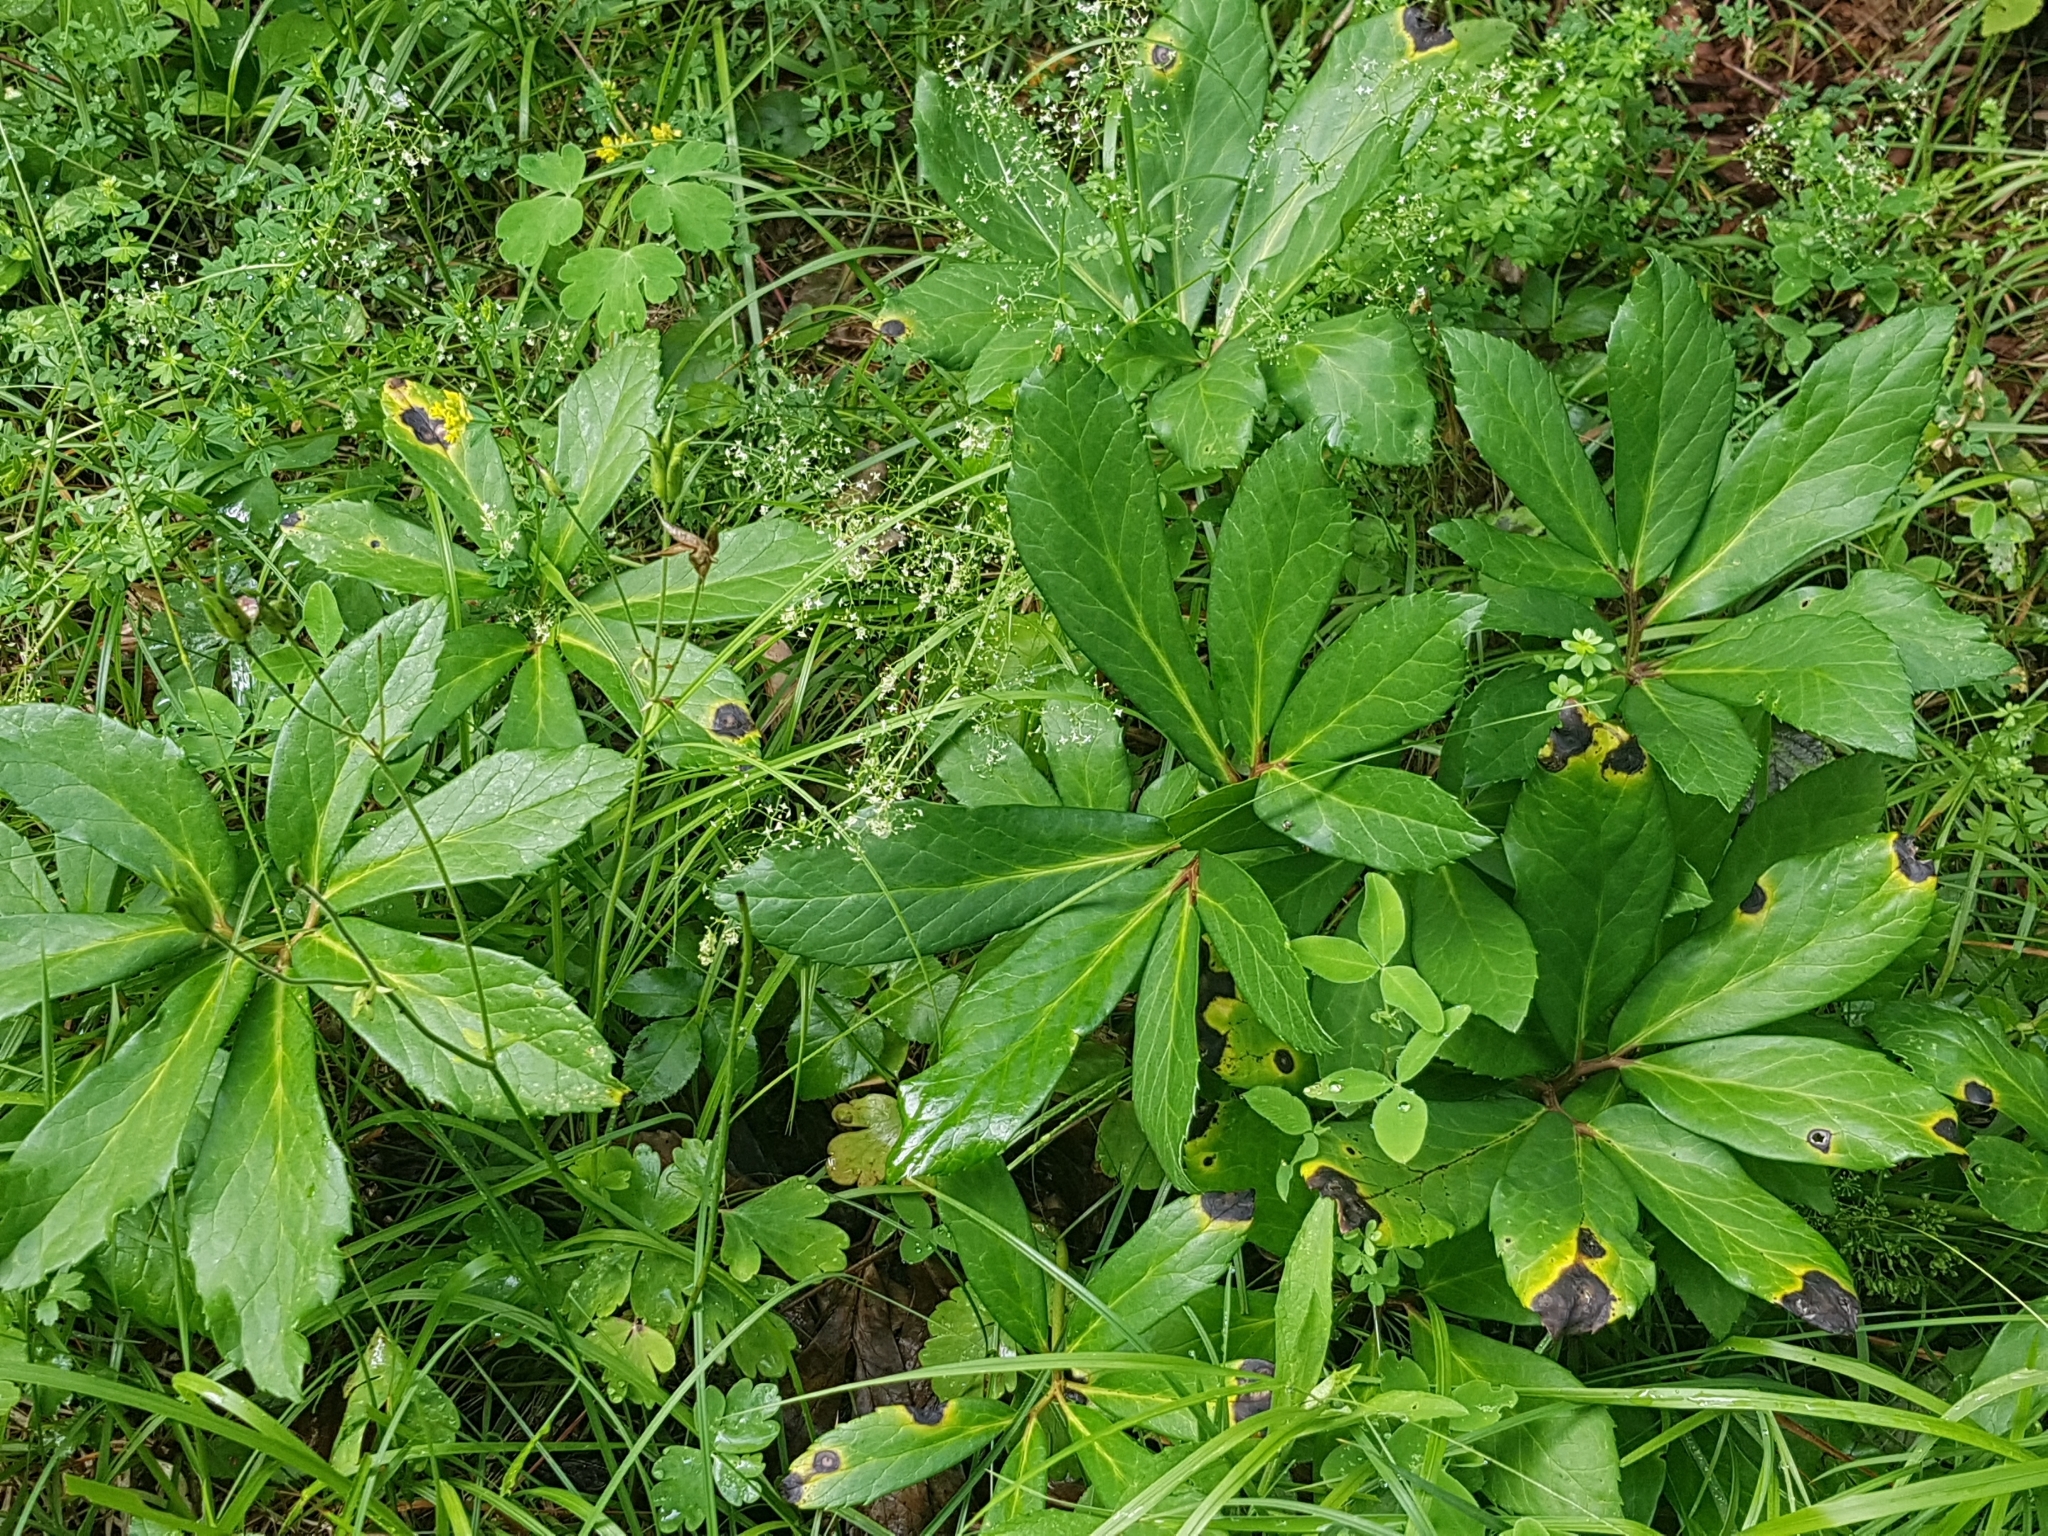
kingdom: Plantae
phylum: Tracheophyta
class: Magnoliopsida
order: Ranunculales
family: Ranunculaceae
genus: Helleborus
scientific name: Helleborus niger
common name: Black hellebore
